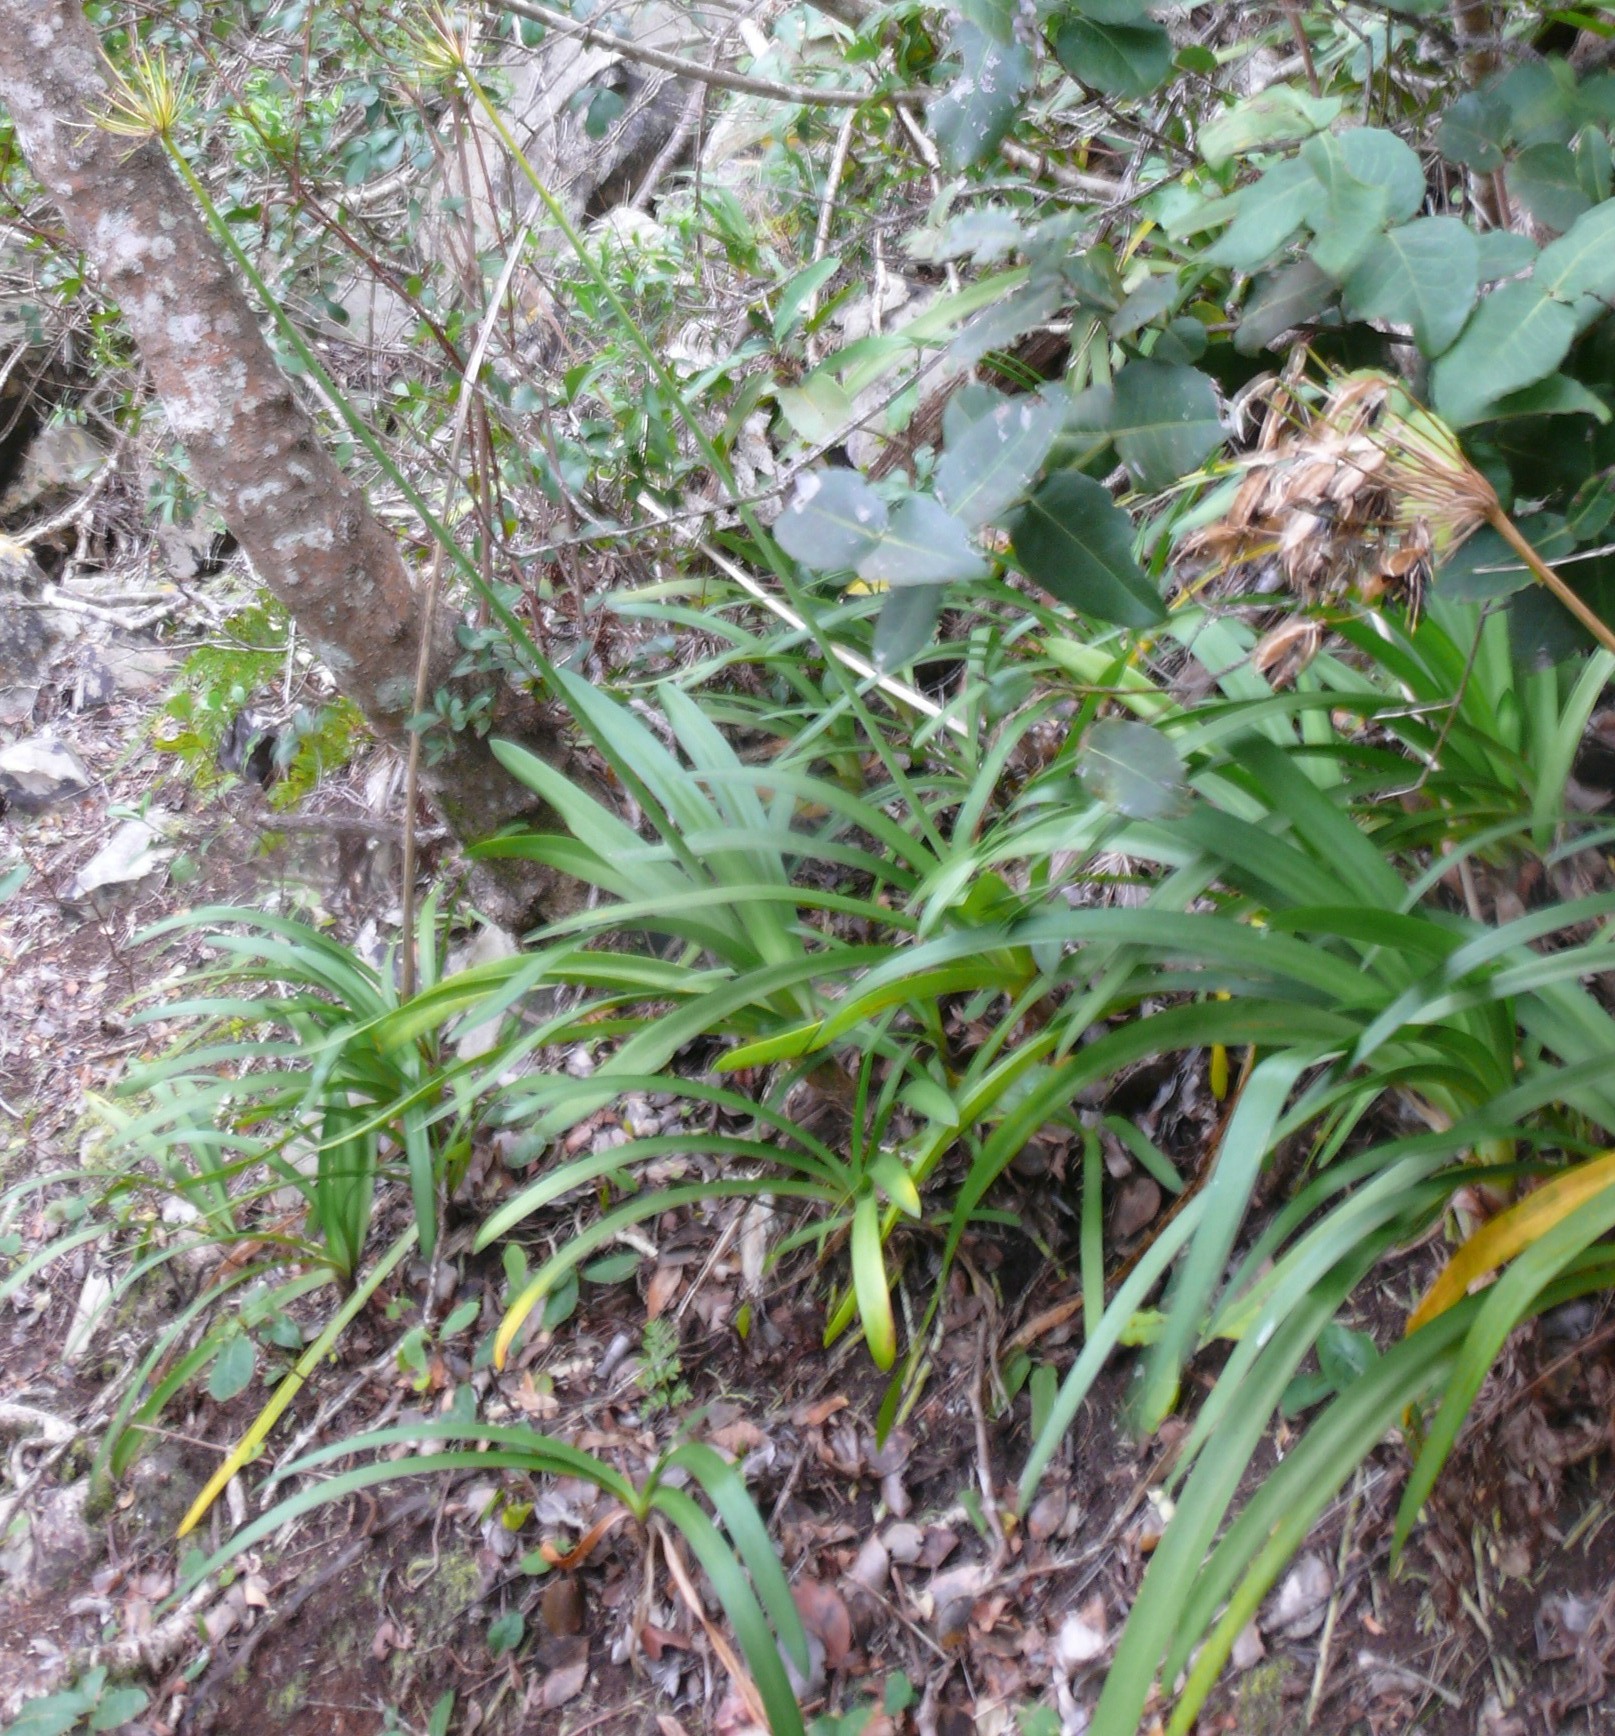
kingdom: Plantae
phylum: Tracheophyta
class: Liliopsida
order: Asparagales
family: Amaryllidaceae
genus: Agapanthus
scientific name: Agapanthus praecox
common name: African-lily
